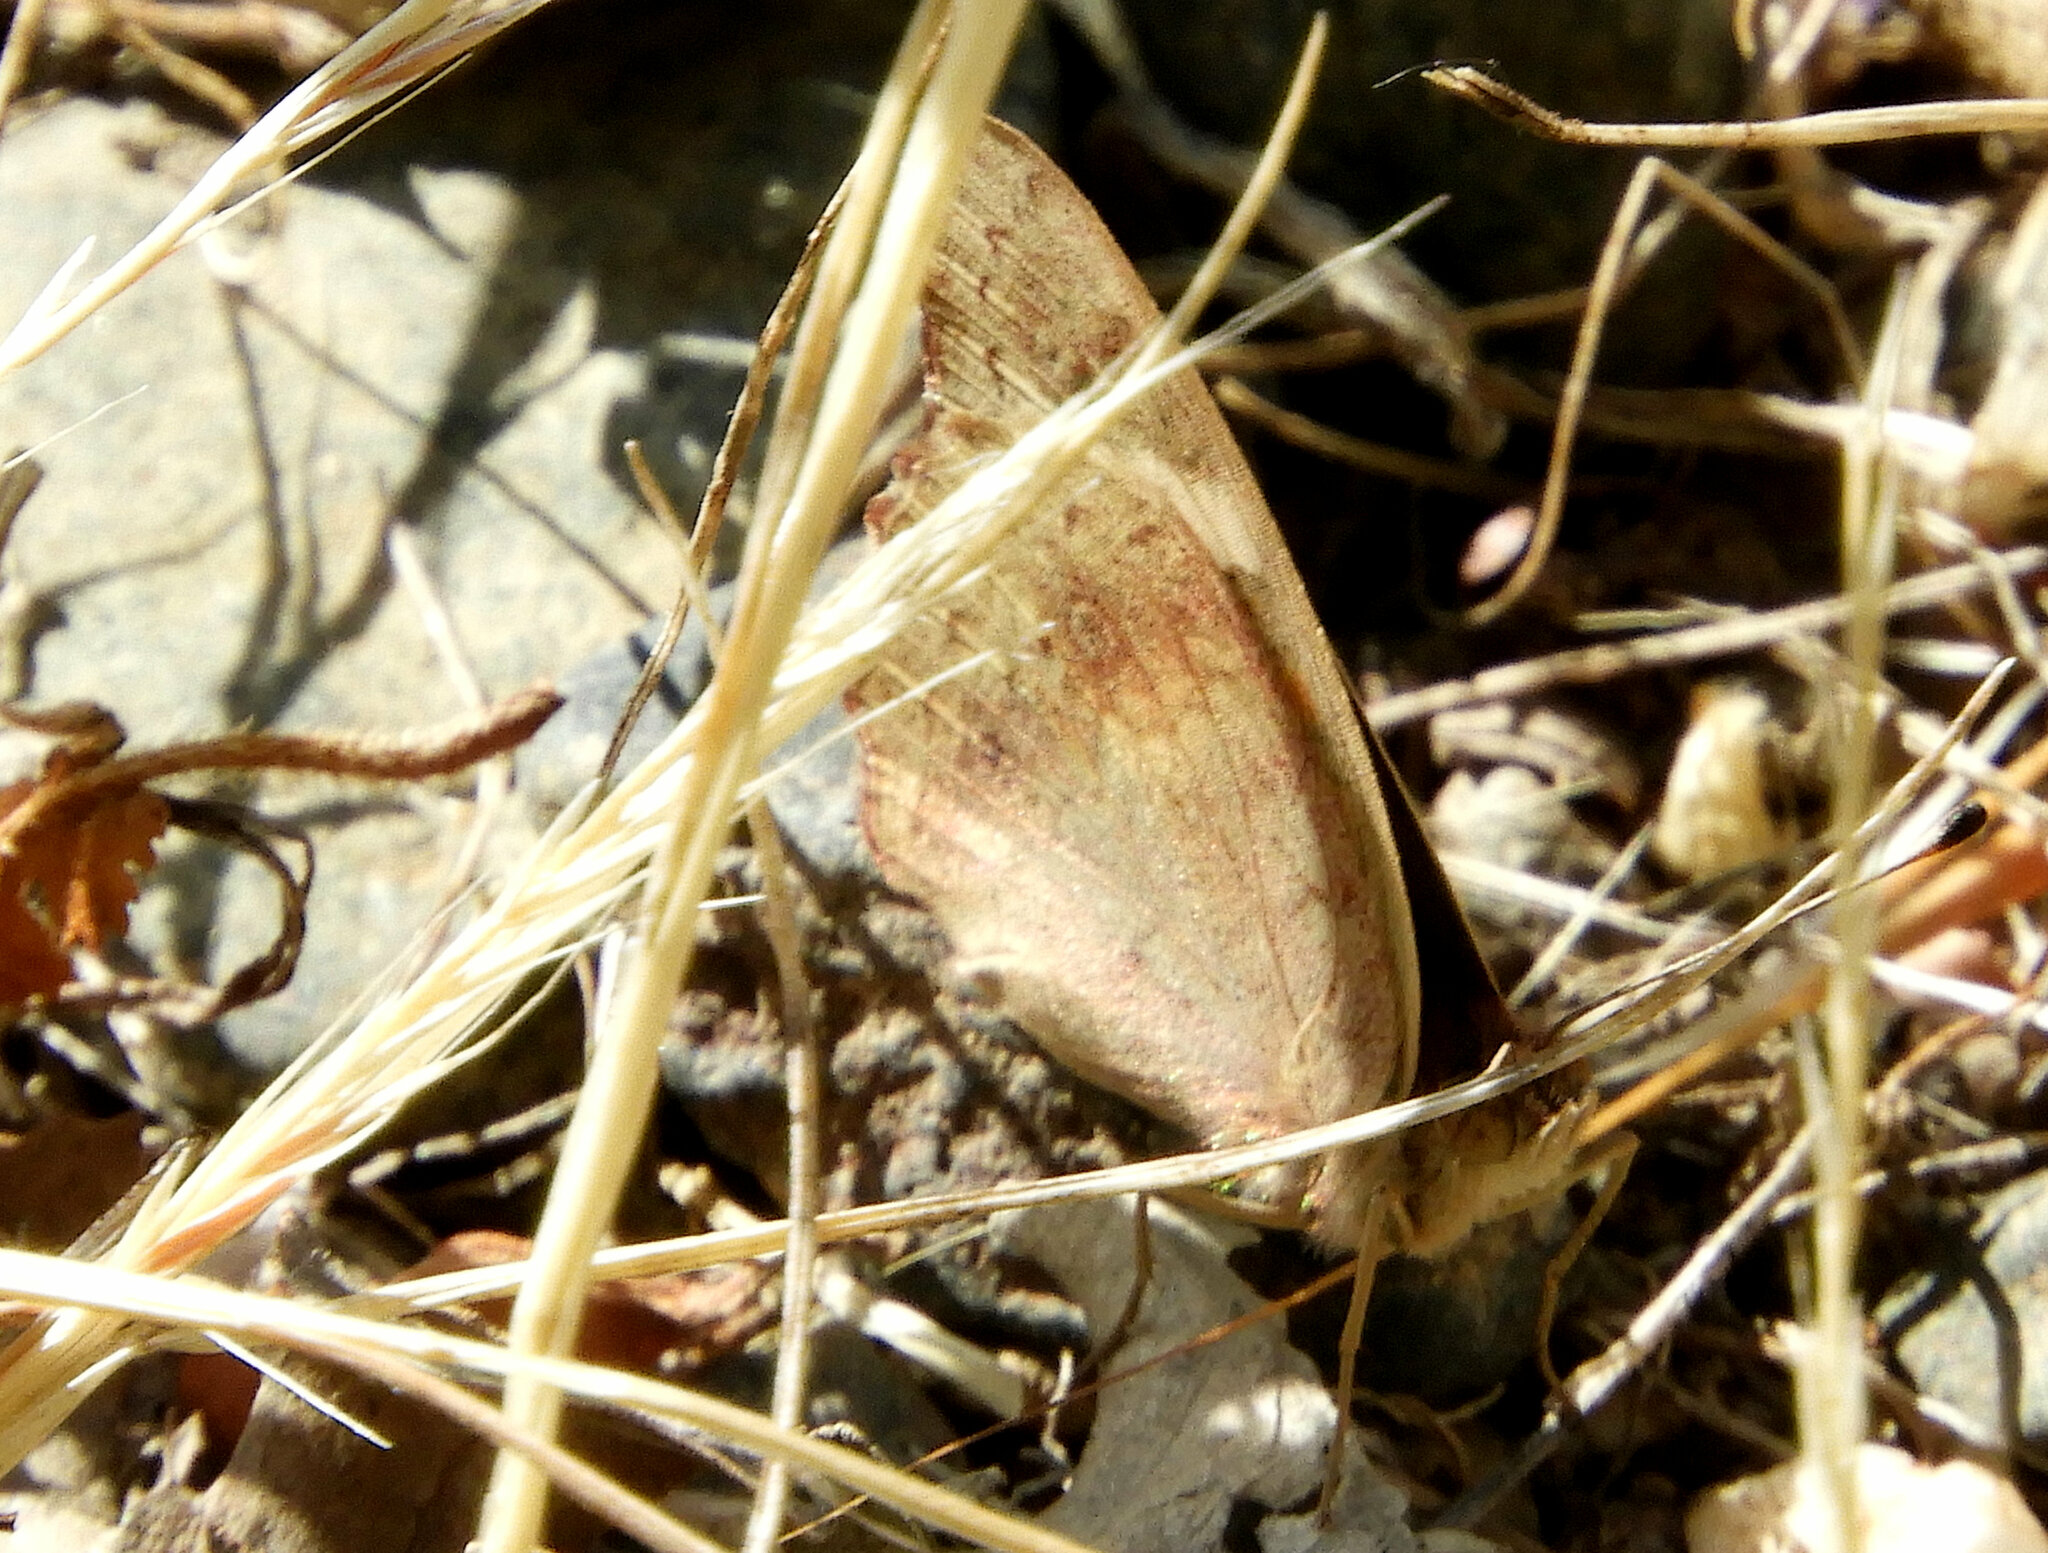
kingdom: Animalia
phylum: Arthropoda
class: Insecta
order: Lepidoptera
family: Nymphalidae
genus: Junonia
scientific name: Junonia grisea
